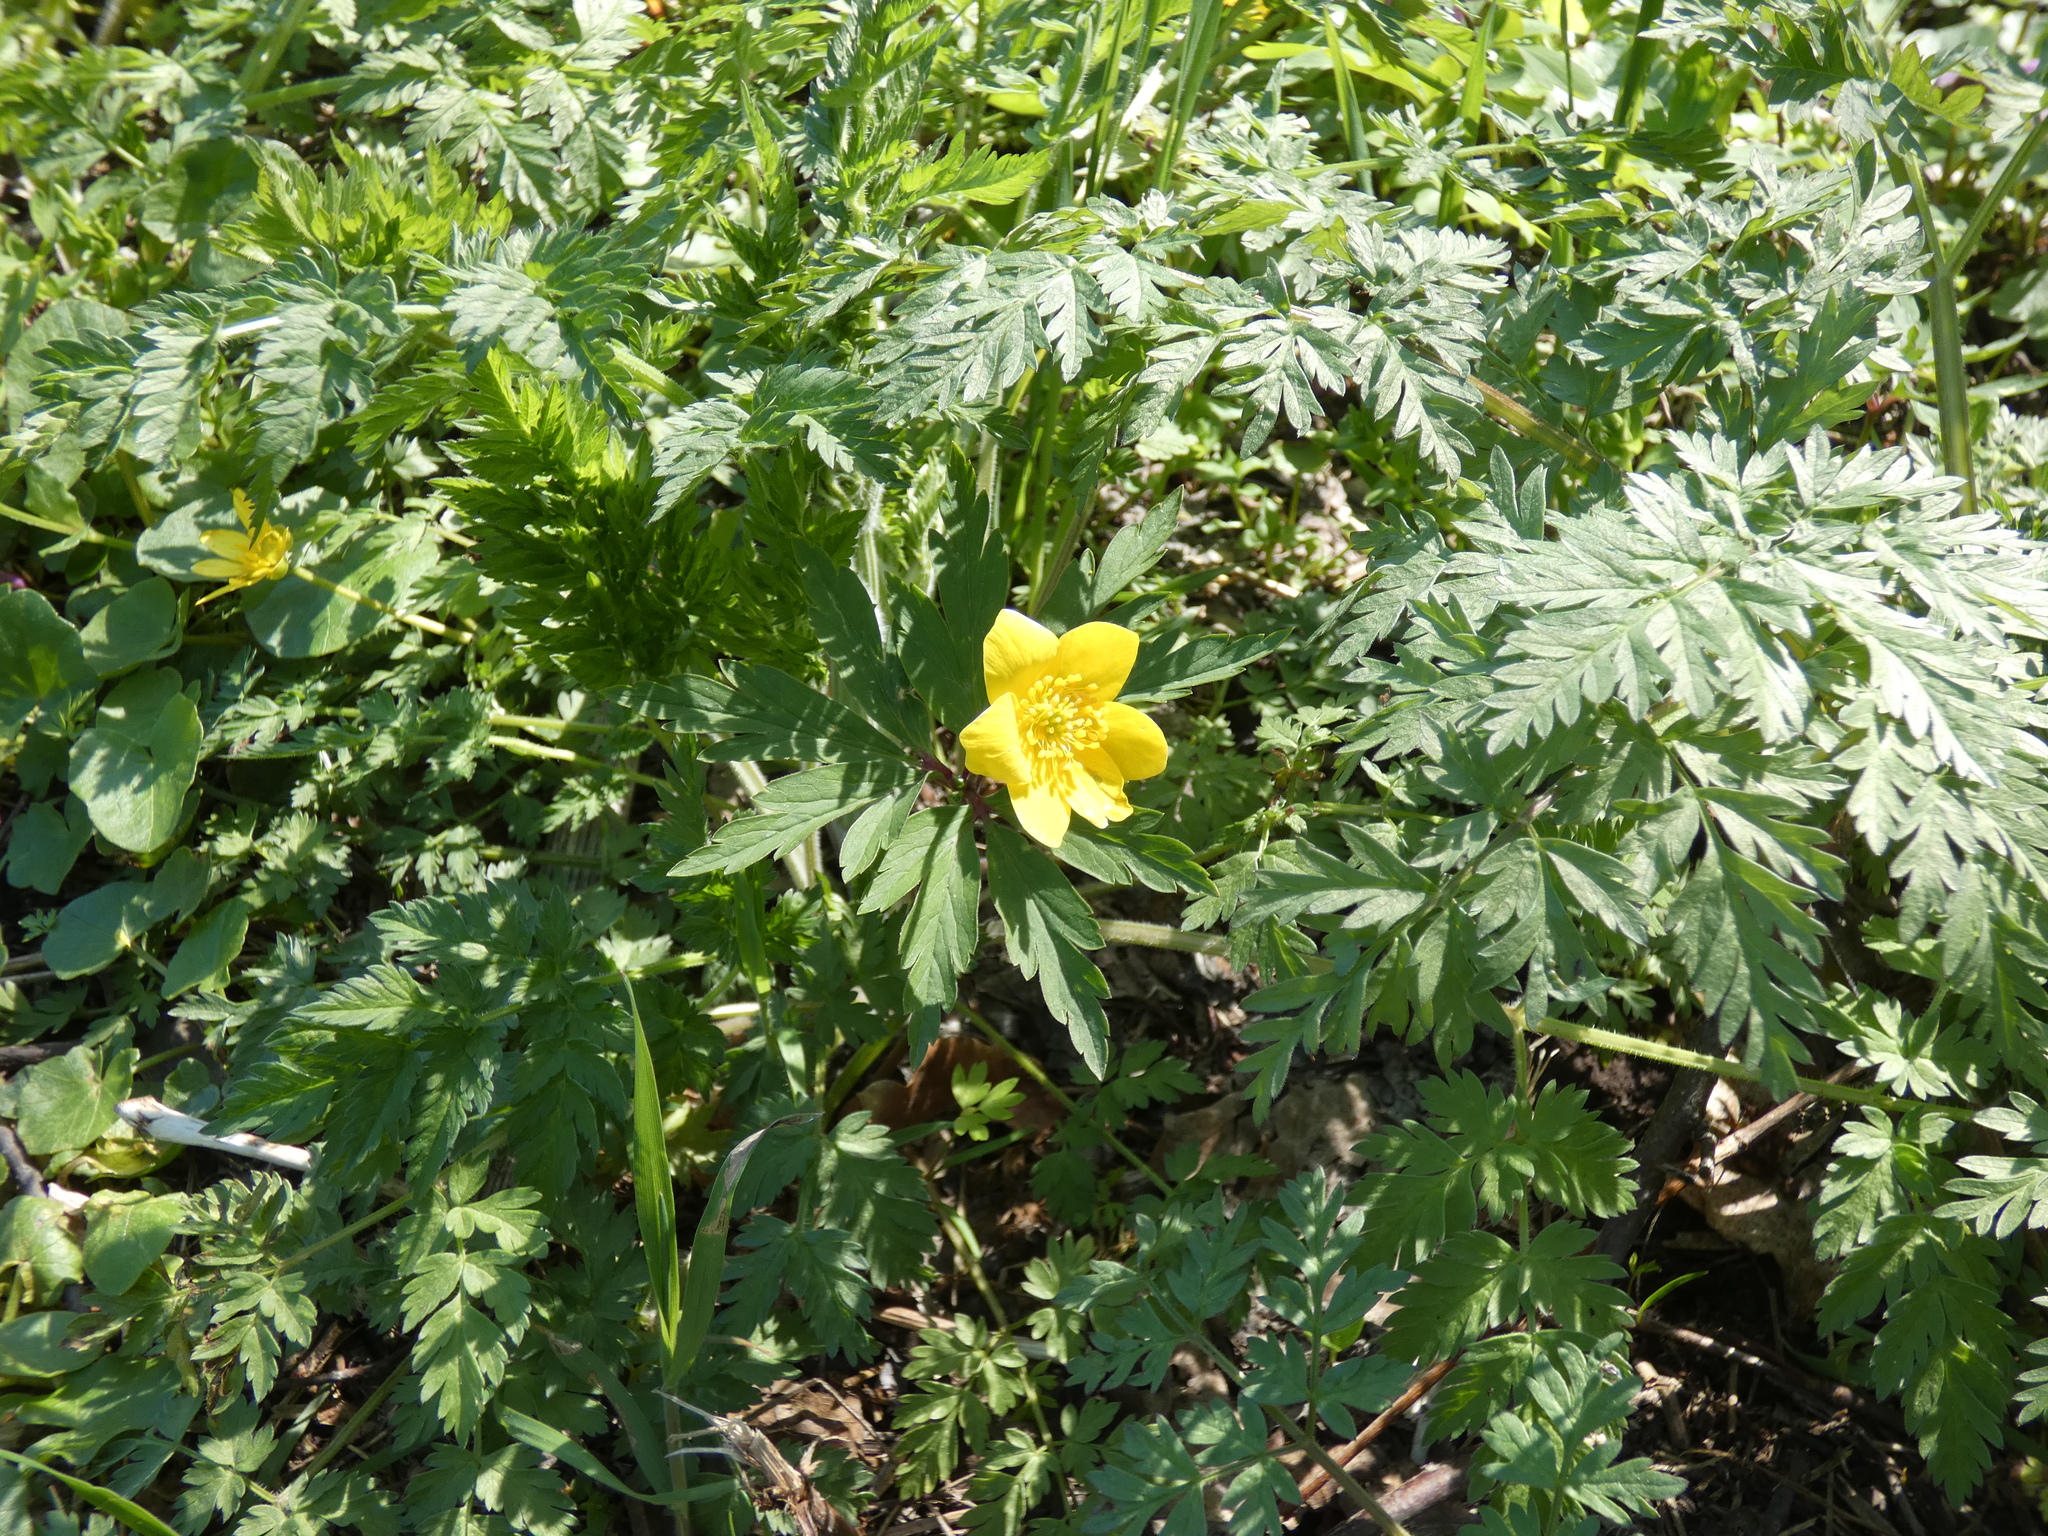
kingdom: Plantae
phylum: Tracheophyta
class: Magnoliopsida
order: Ranunculales
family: Ranunculaceae
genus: Anemone
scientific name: Anemone ranunculoides
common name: Yellow anemone
